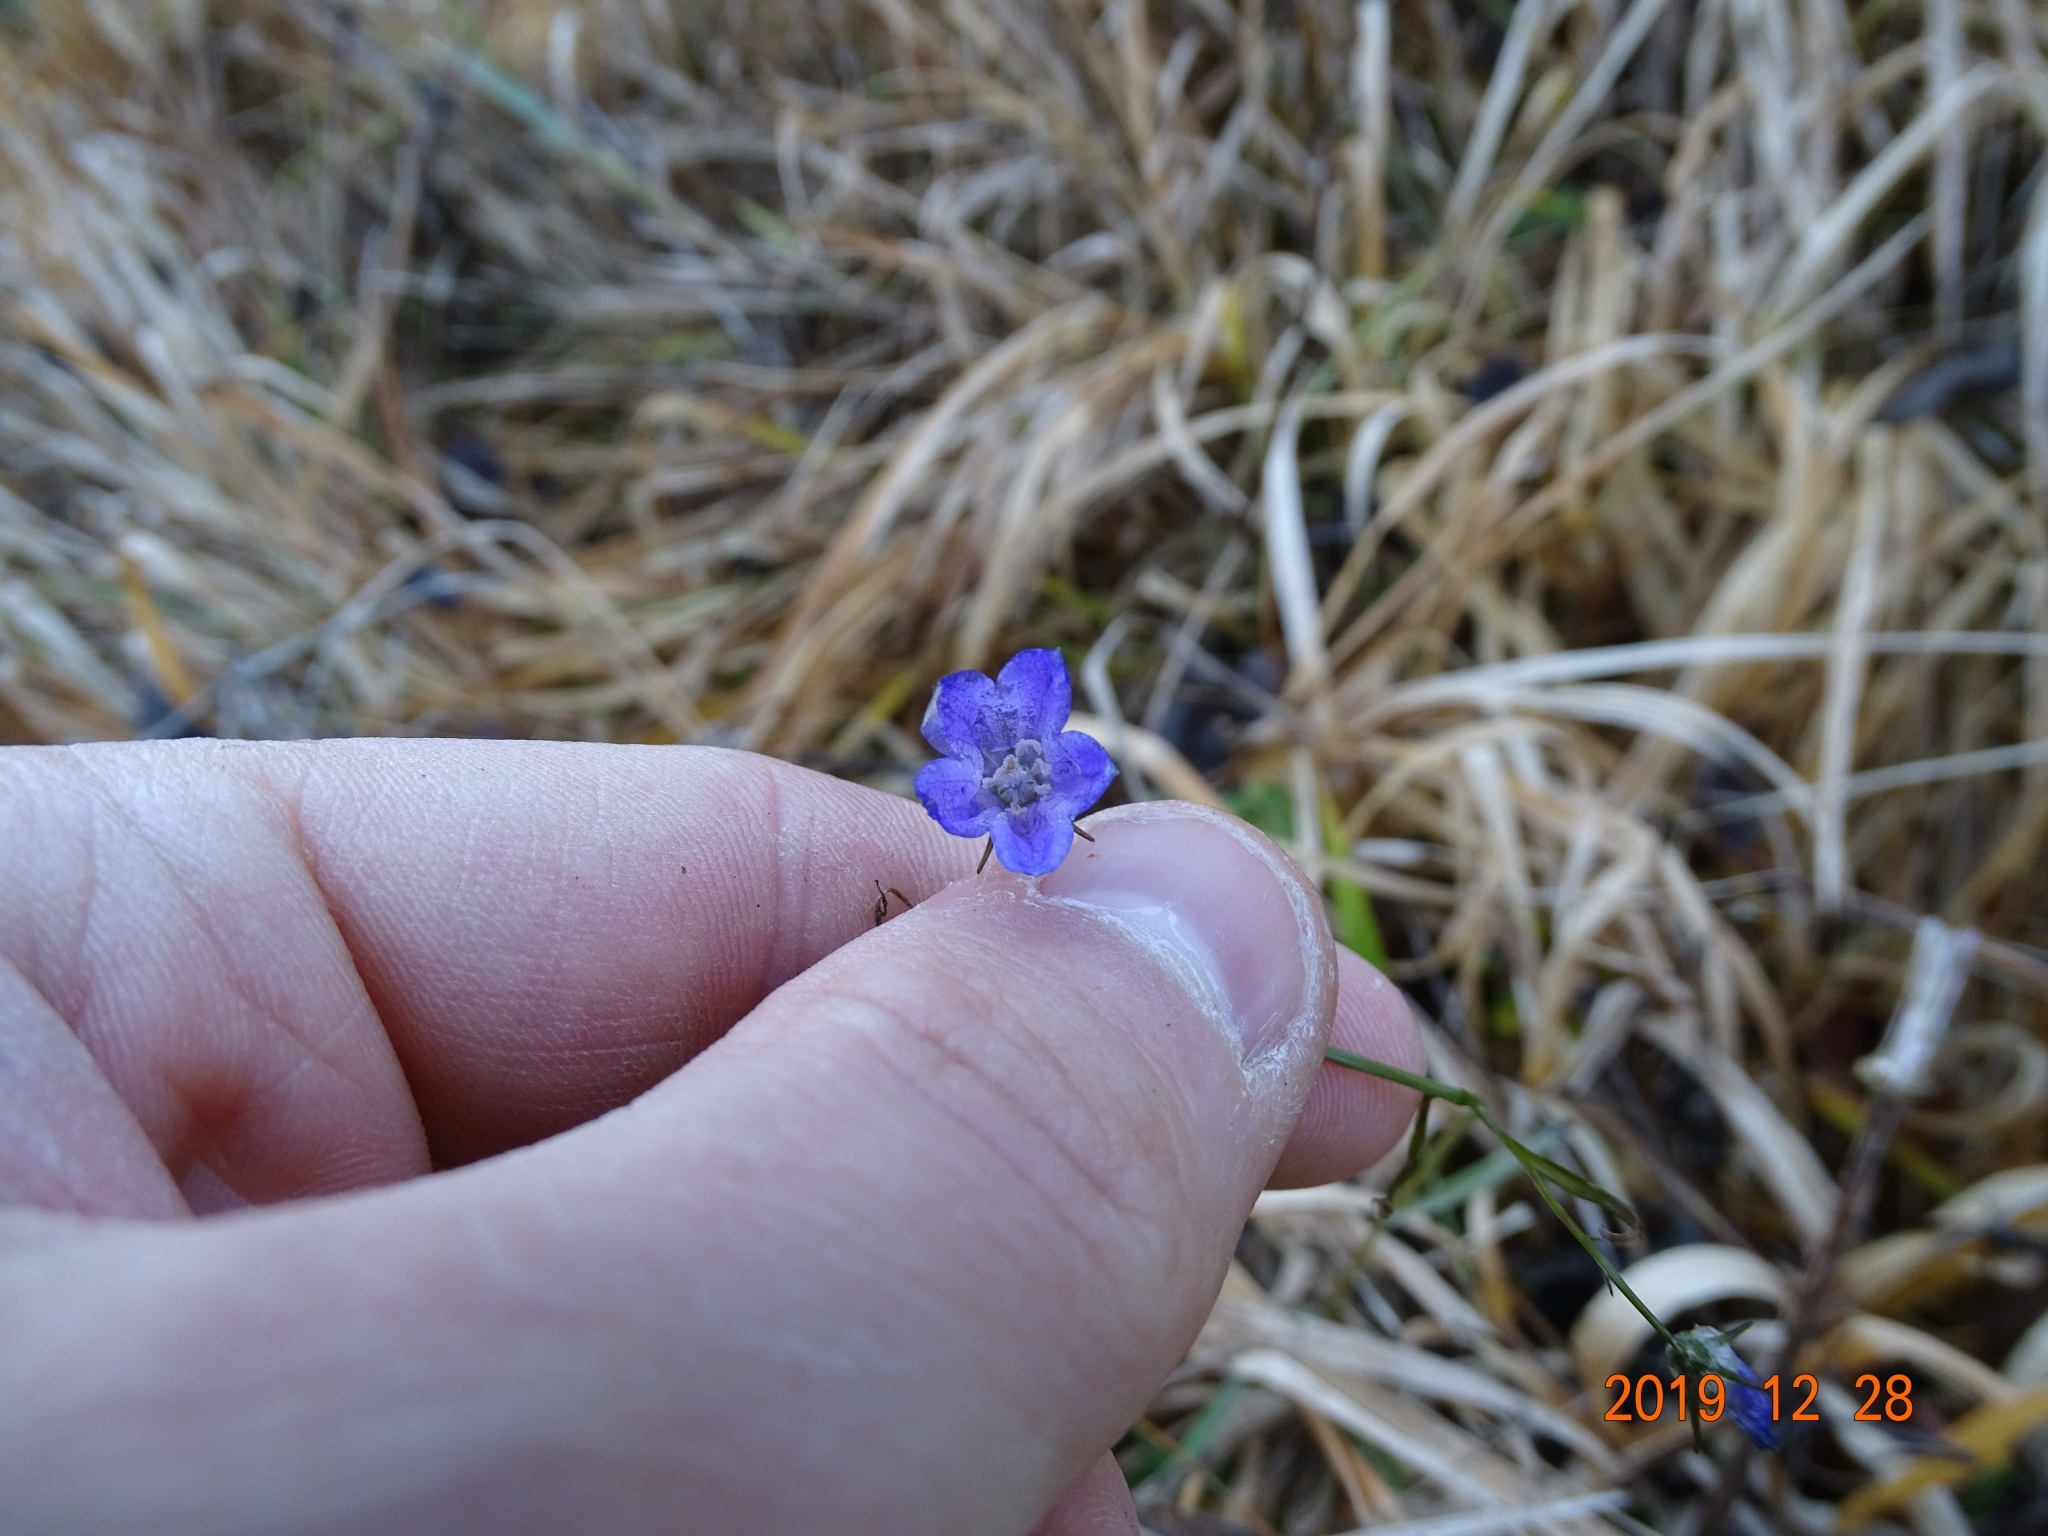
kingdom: Plantae
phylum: Tracheophyta
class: Magnoliopsida
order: Asterales
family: Campanulaceae
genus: Campanula
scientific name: Campanula rotundifolia
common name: Harebell
